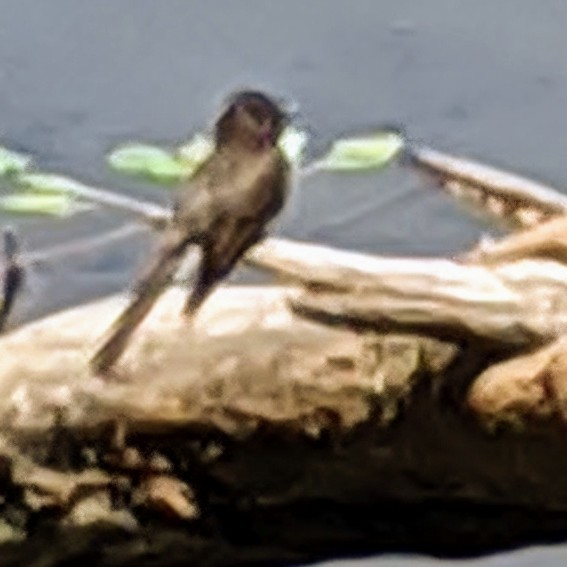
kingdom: Animalia
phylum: Chordata
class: Aves
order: Passeriformes
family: Tyrannidae
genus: Sayornis
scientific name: Sayornis nigricans
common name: Black phoebe
